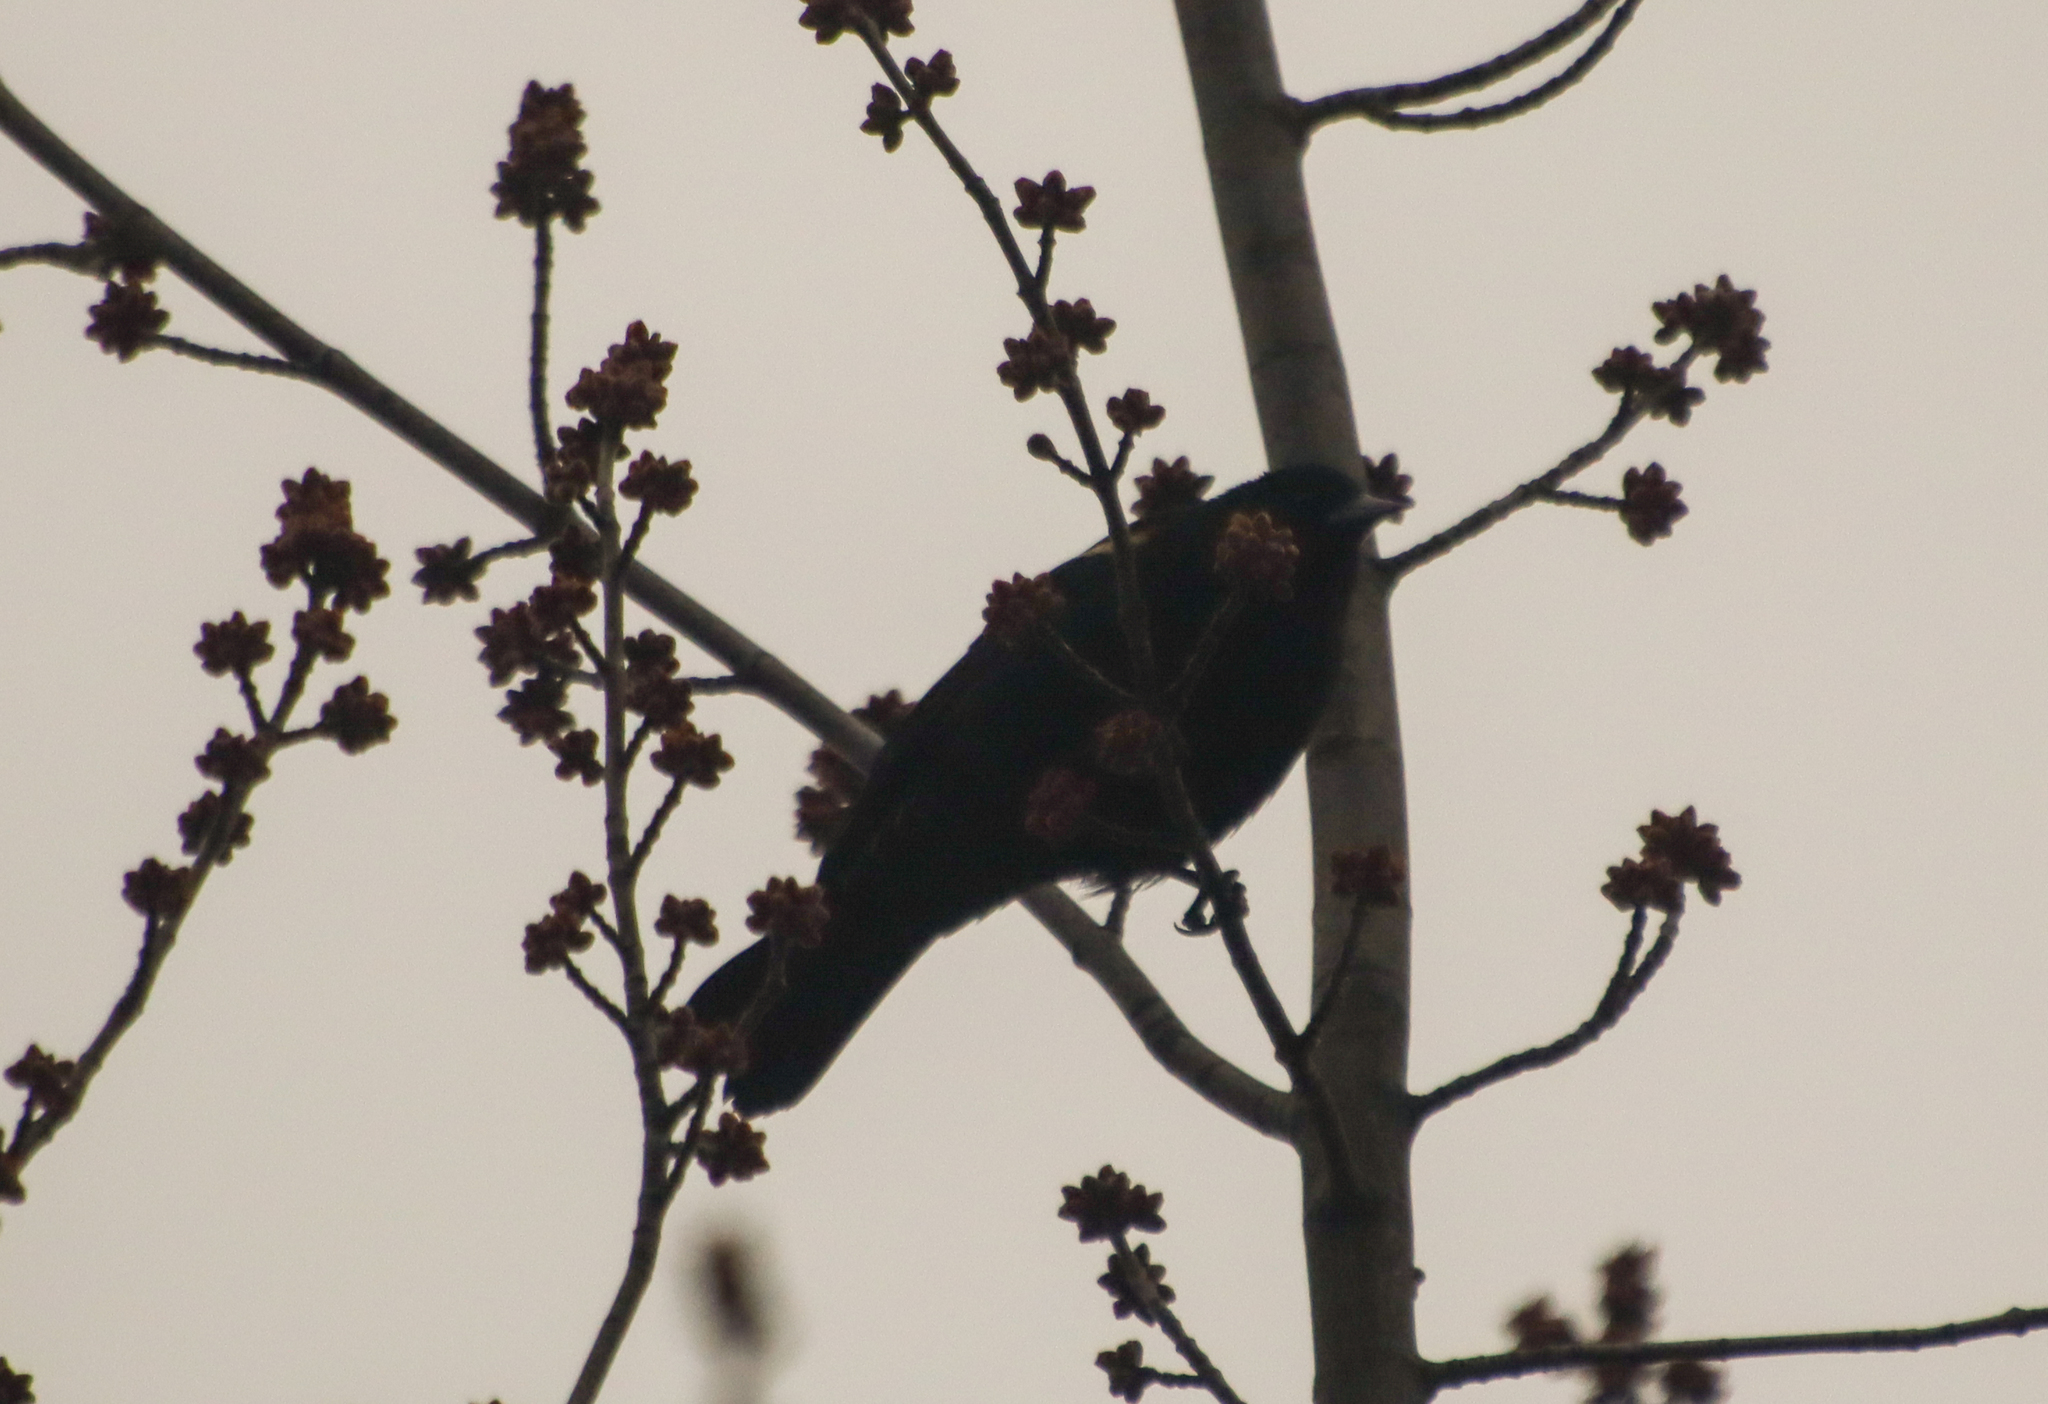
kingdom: Animalia
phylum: Chordata
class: Aves
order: Passeriformes
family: Icteridae
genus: Agelaius
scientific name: Agelaius phoeniceus
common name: Red-winged blackbird
